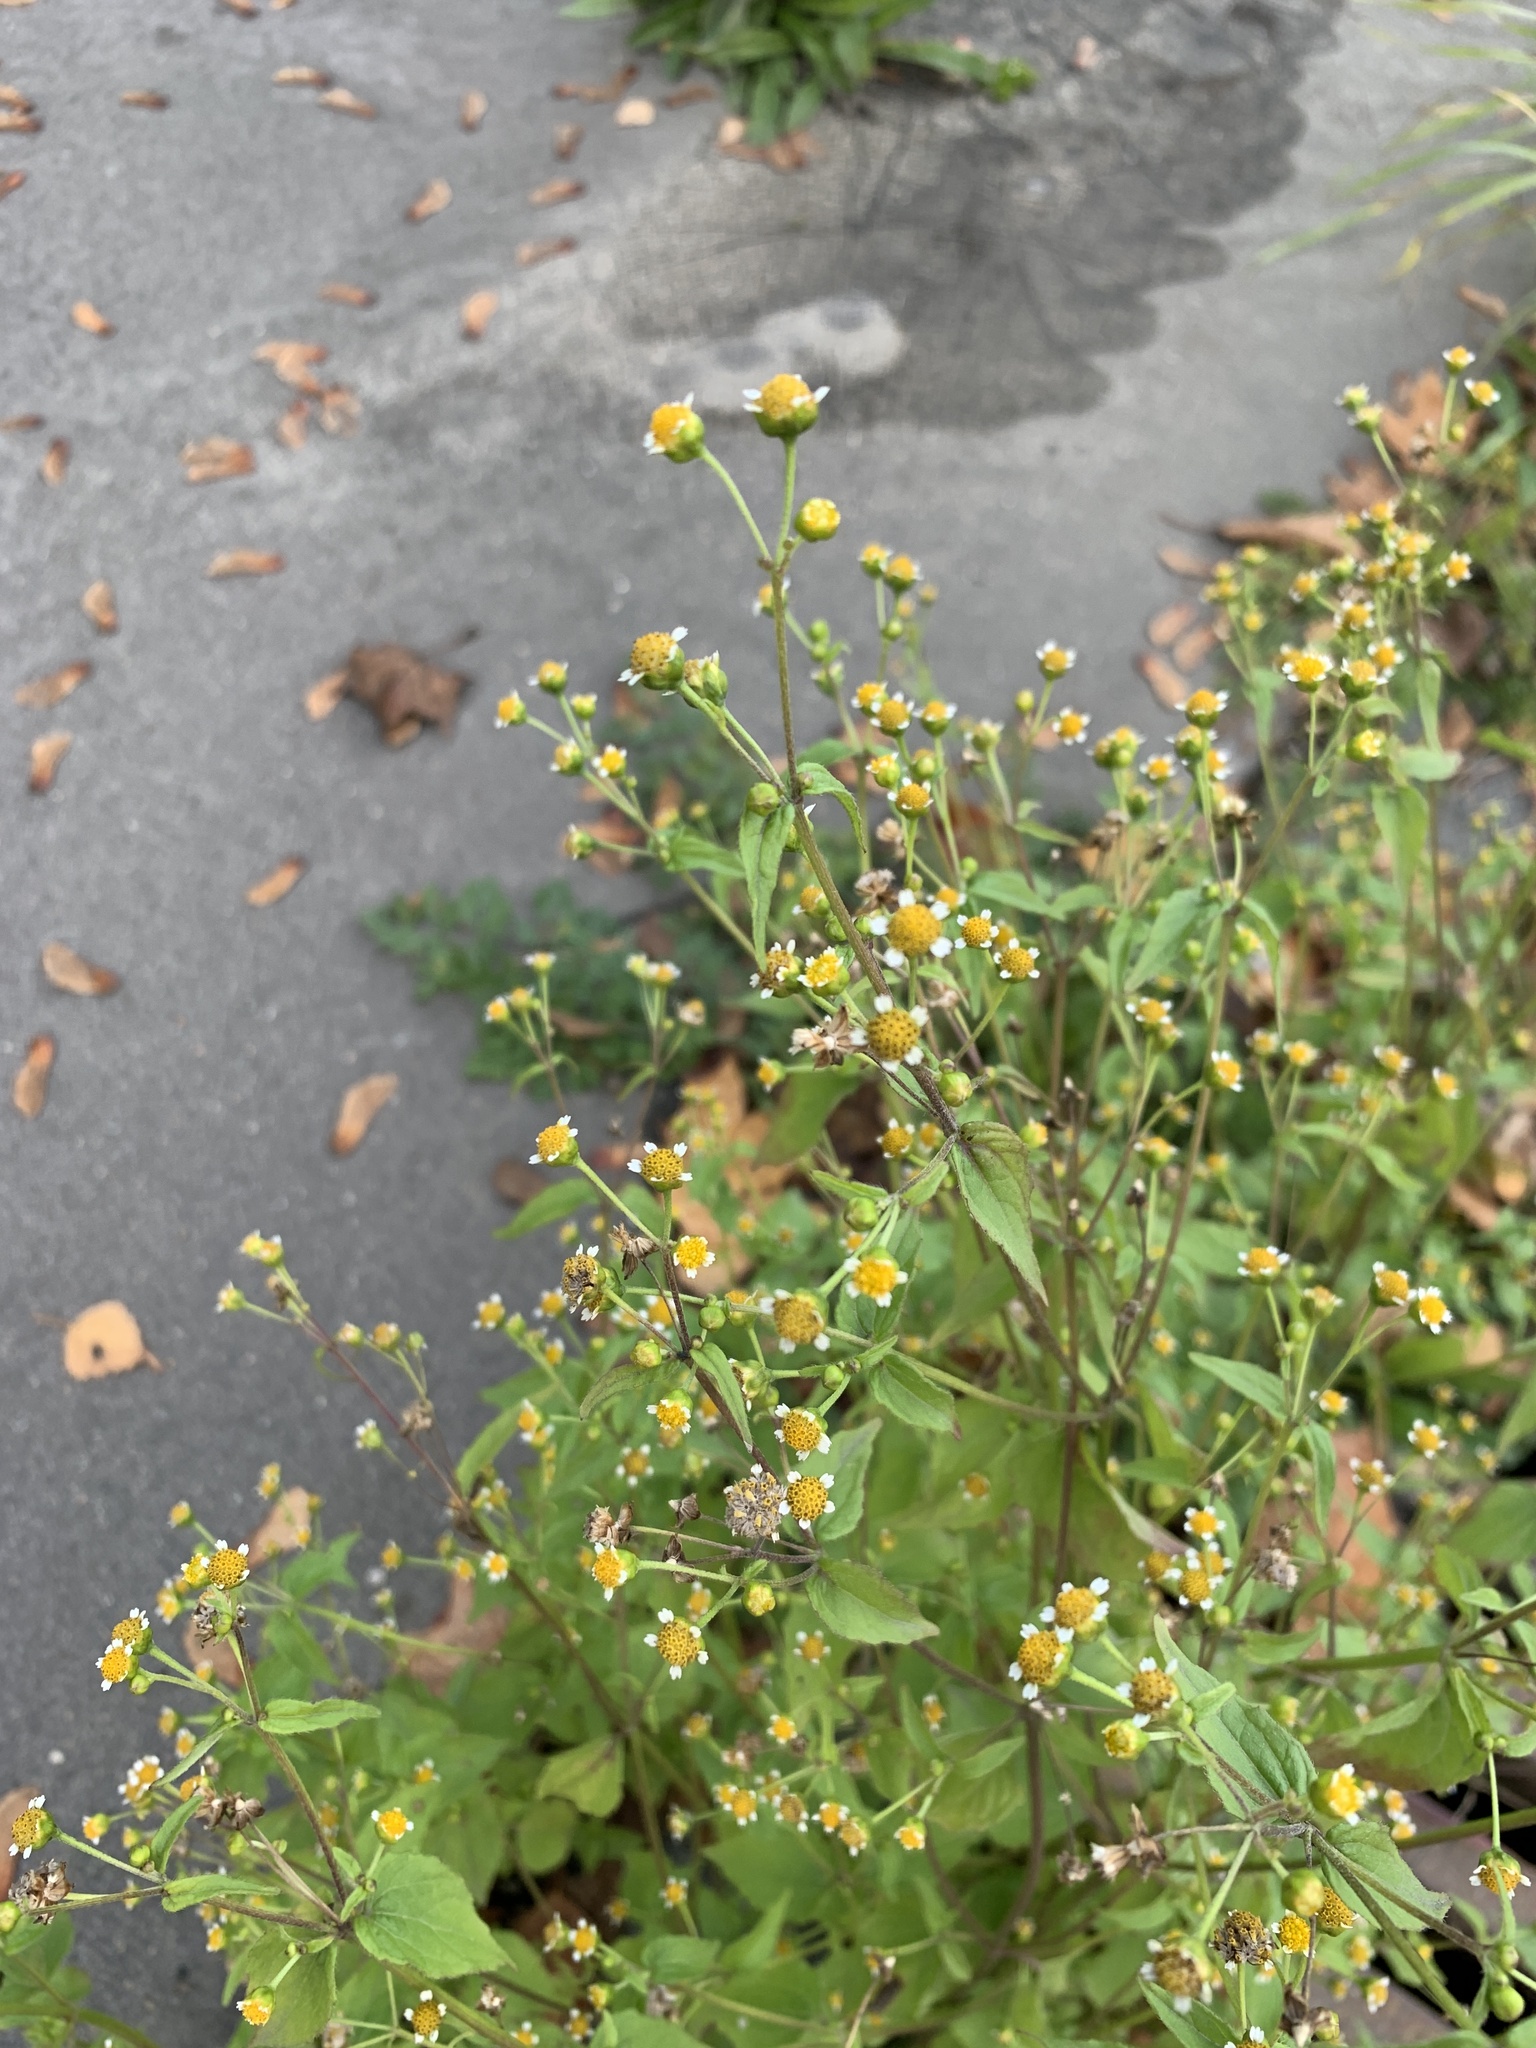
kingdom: Plantae
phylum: Tracheophyta
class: Magnoliopsida
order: Asterales
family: Asteraceae
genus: Galinsoga
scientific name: Galinsoga parviflora
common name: Gallant soldier
